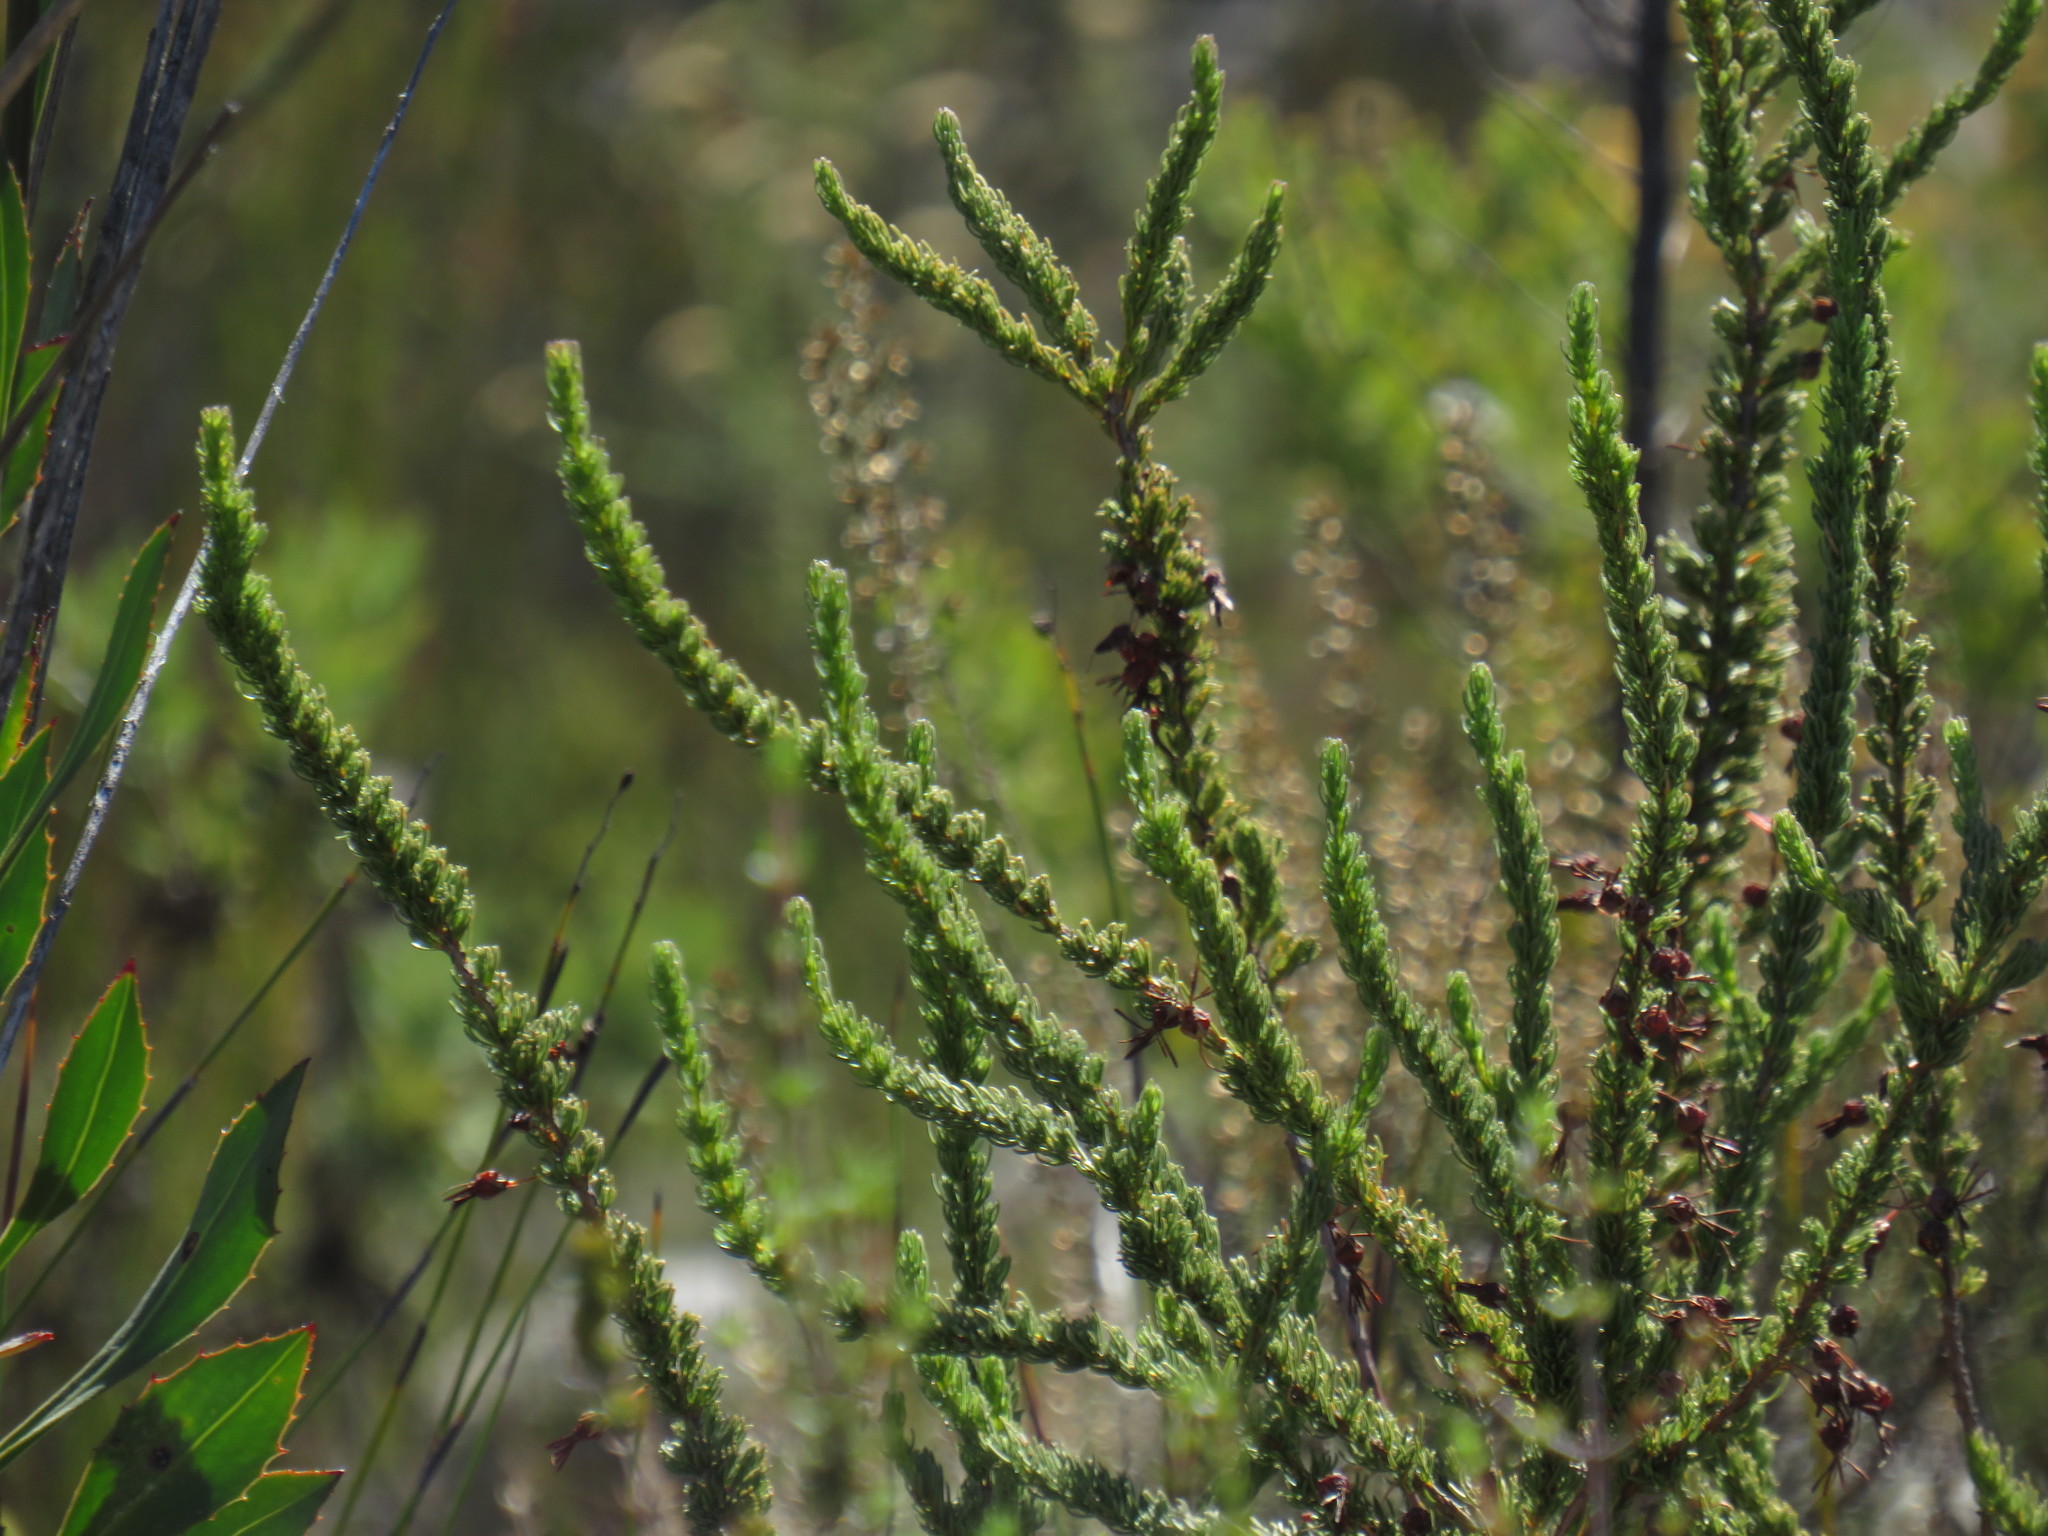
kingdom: Plantae
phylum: Tracheophyta
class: Magnoliopsida
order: Ericales
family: Ericaceae
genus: Erica
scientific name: Erica plukenetii
